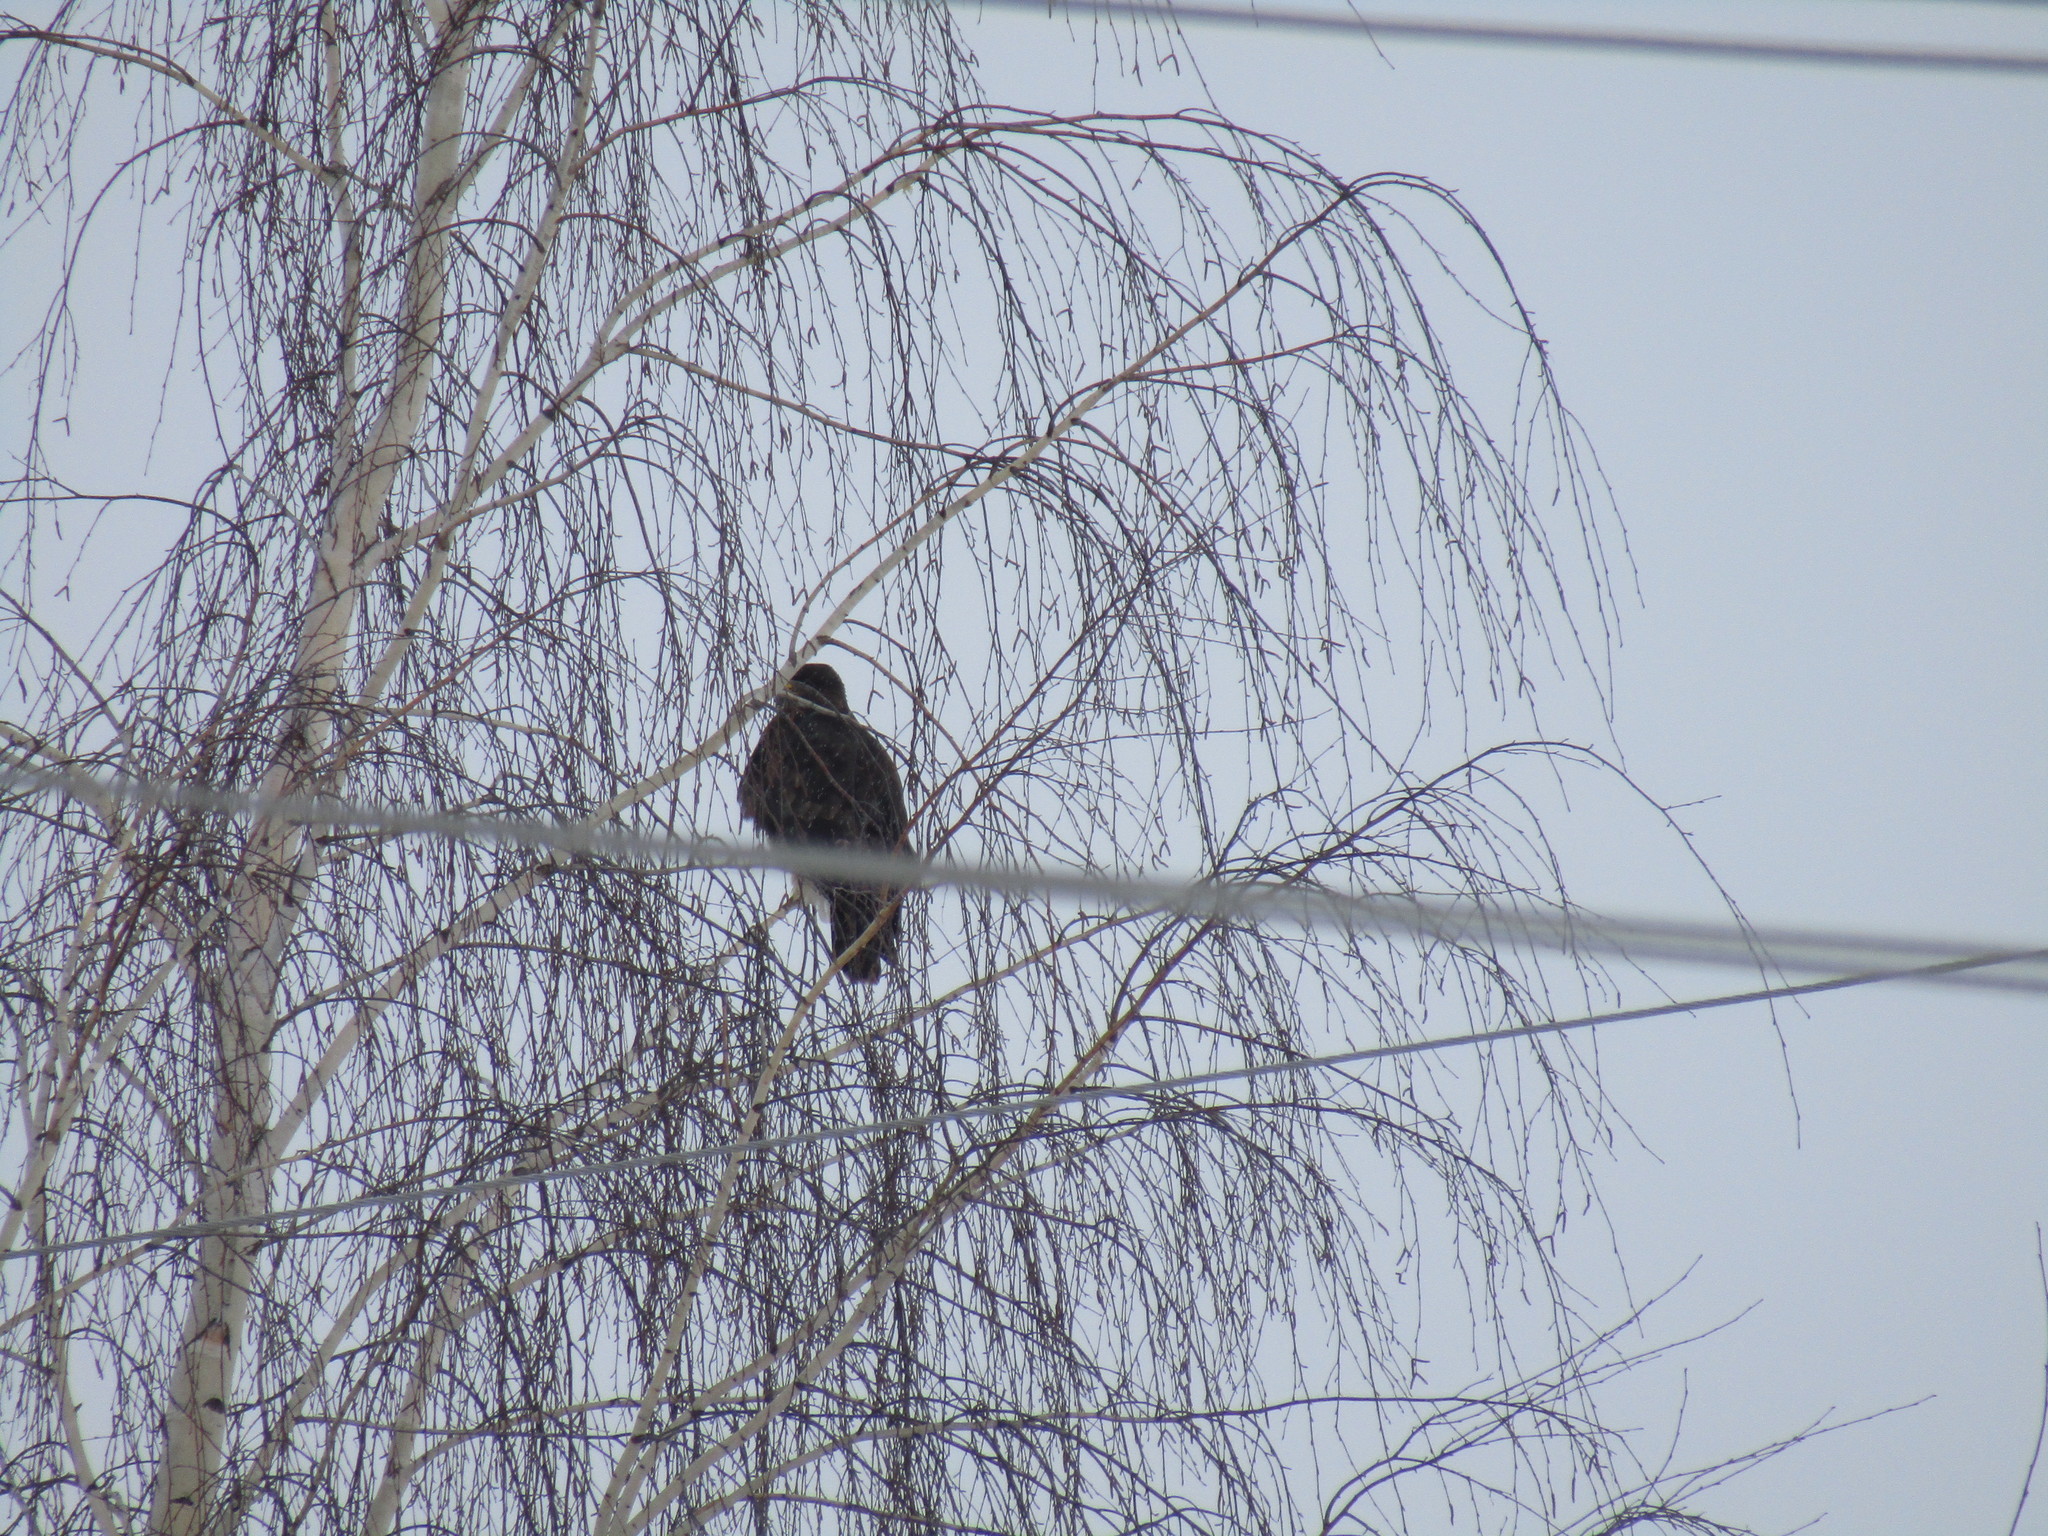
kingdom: Animalia
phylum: Chordata
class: Aves
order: Accipitriformes
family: Accipitridae
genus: Buteo
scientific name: Buteo buteo
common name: Common buzzard
